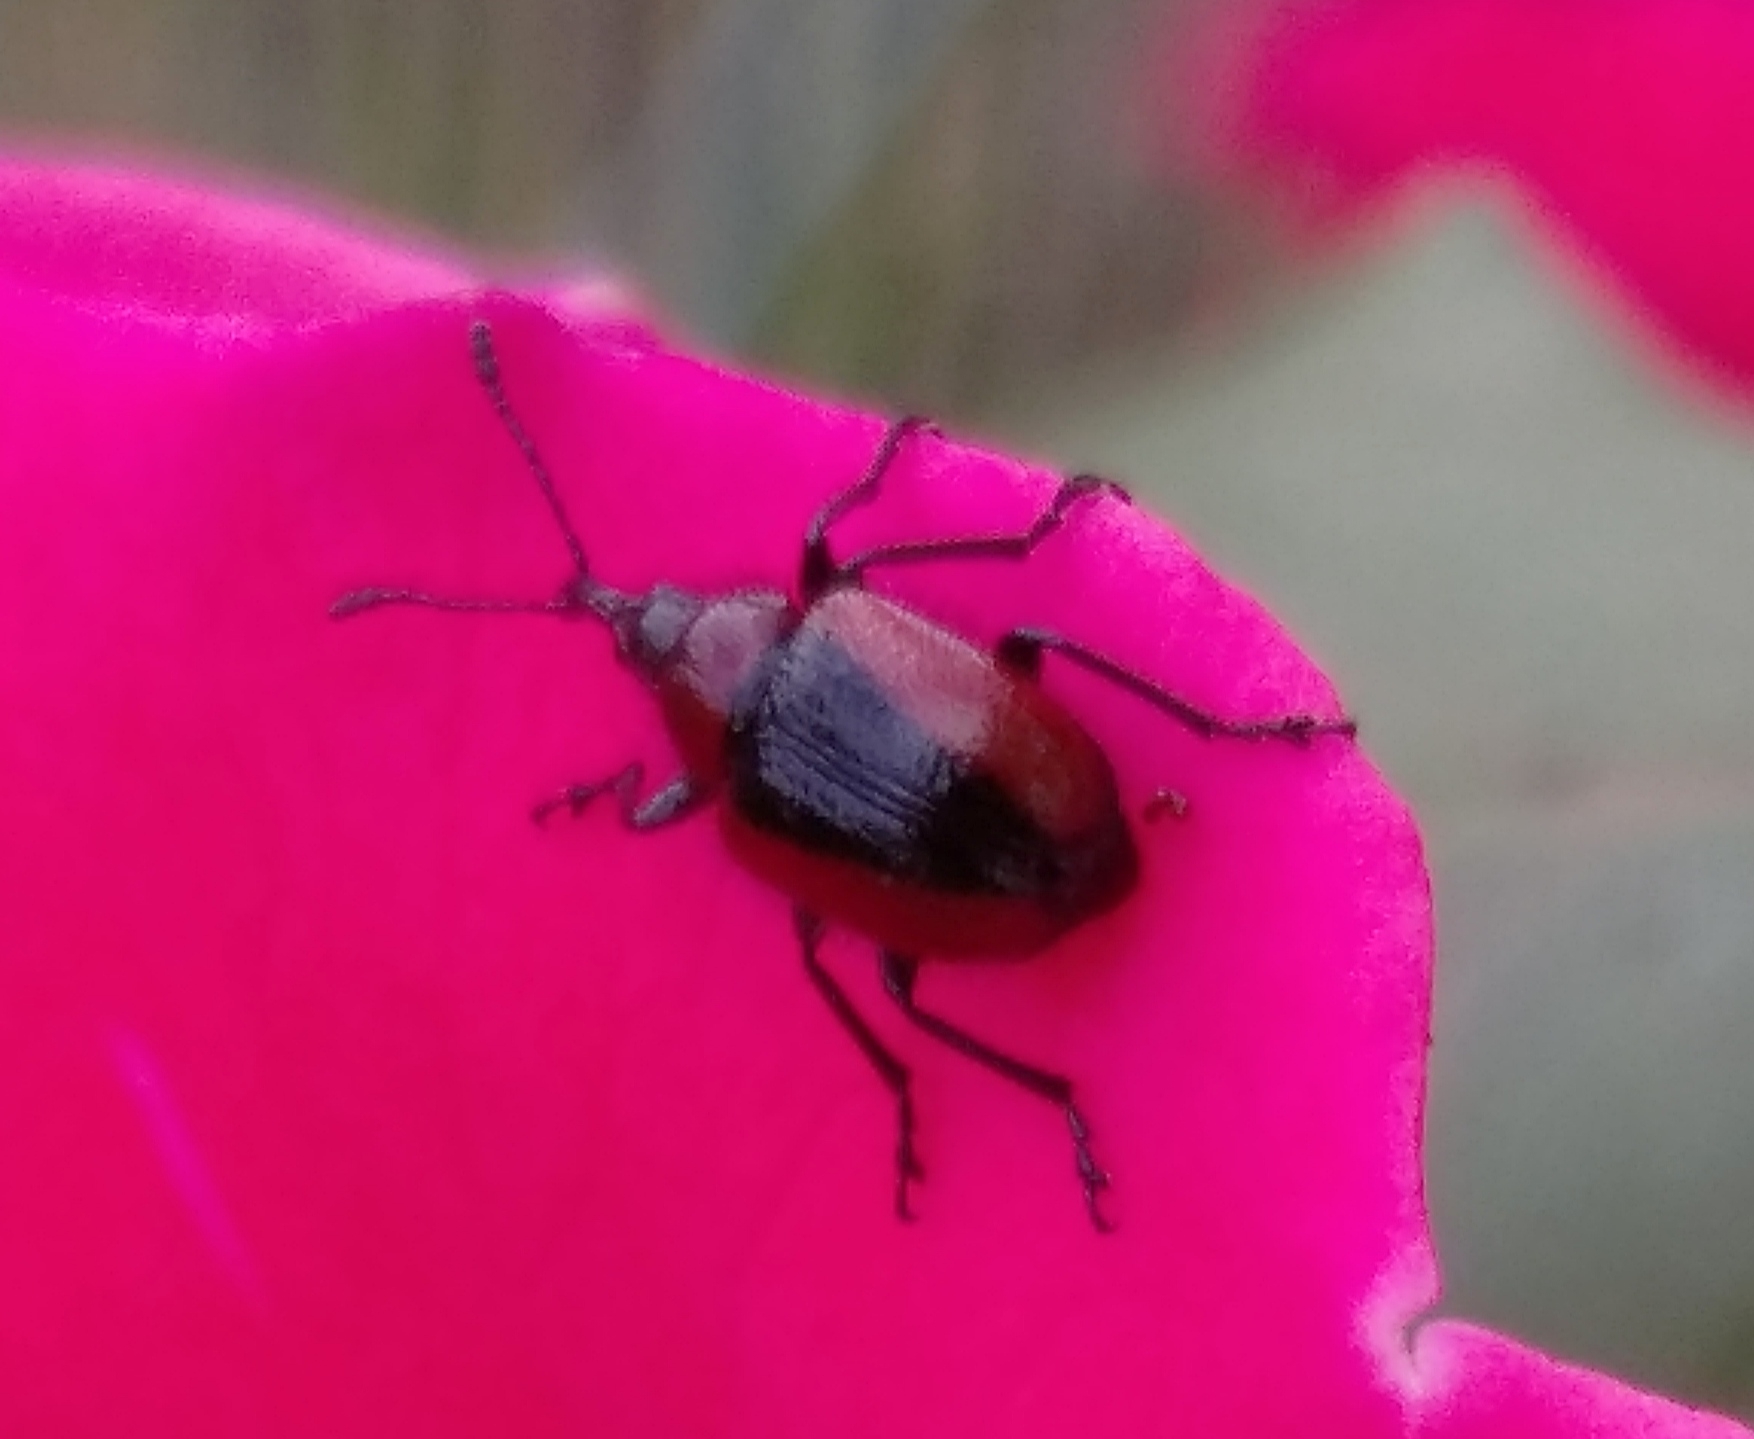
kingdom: Animalia
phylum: Arthropoda
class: Insecta
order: Coleoptera
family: Attelabidae
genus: Mecorhis
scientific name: Mecorhis ungarica
